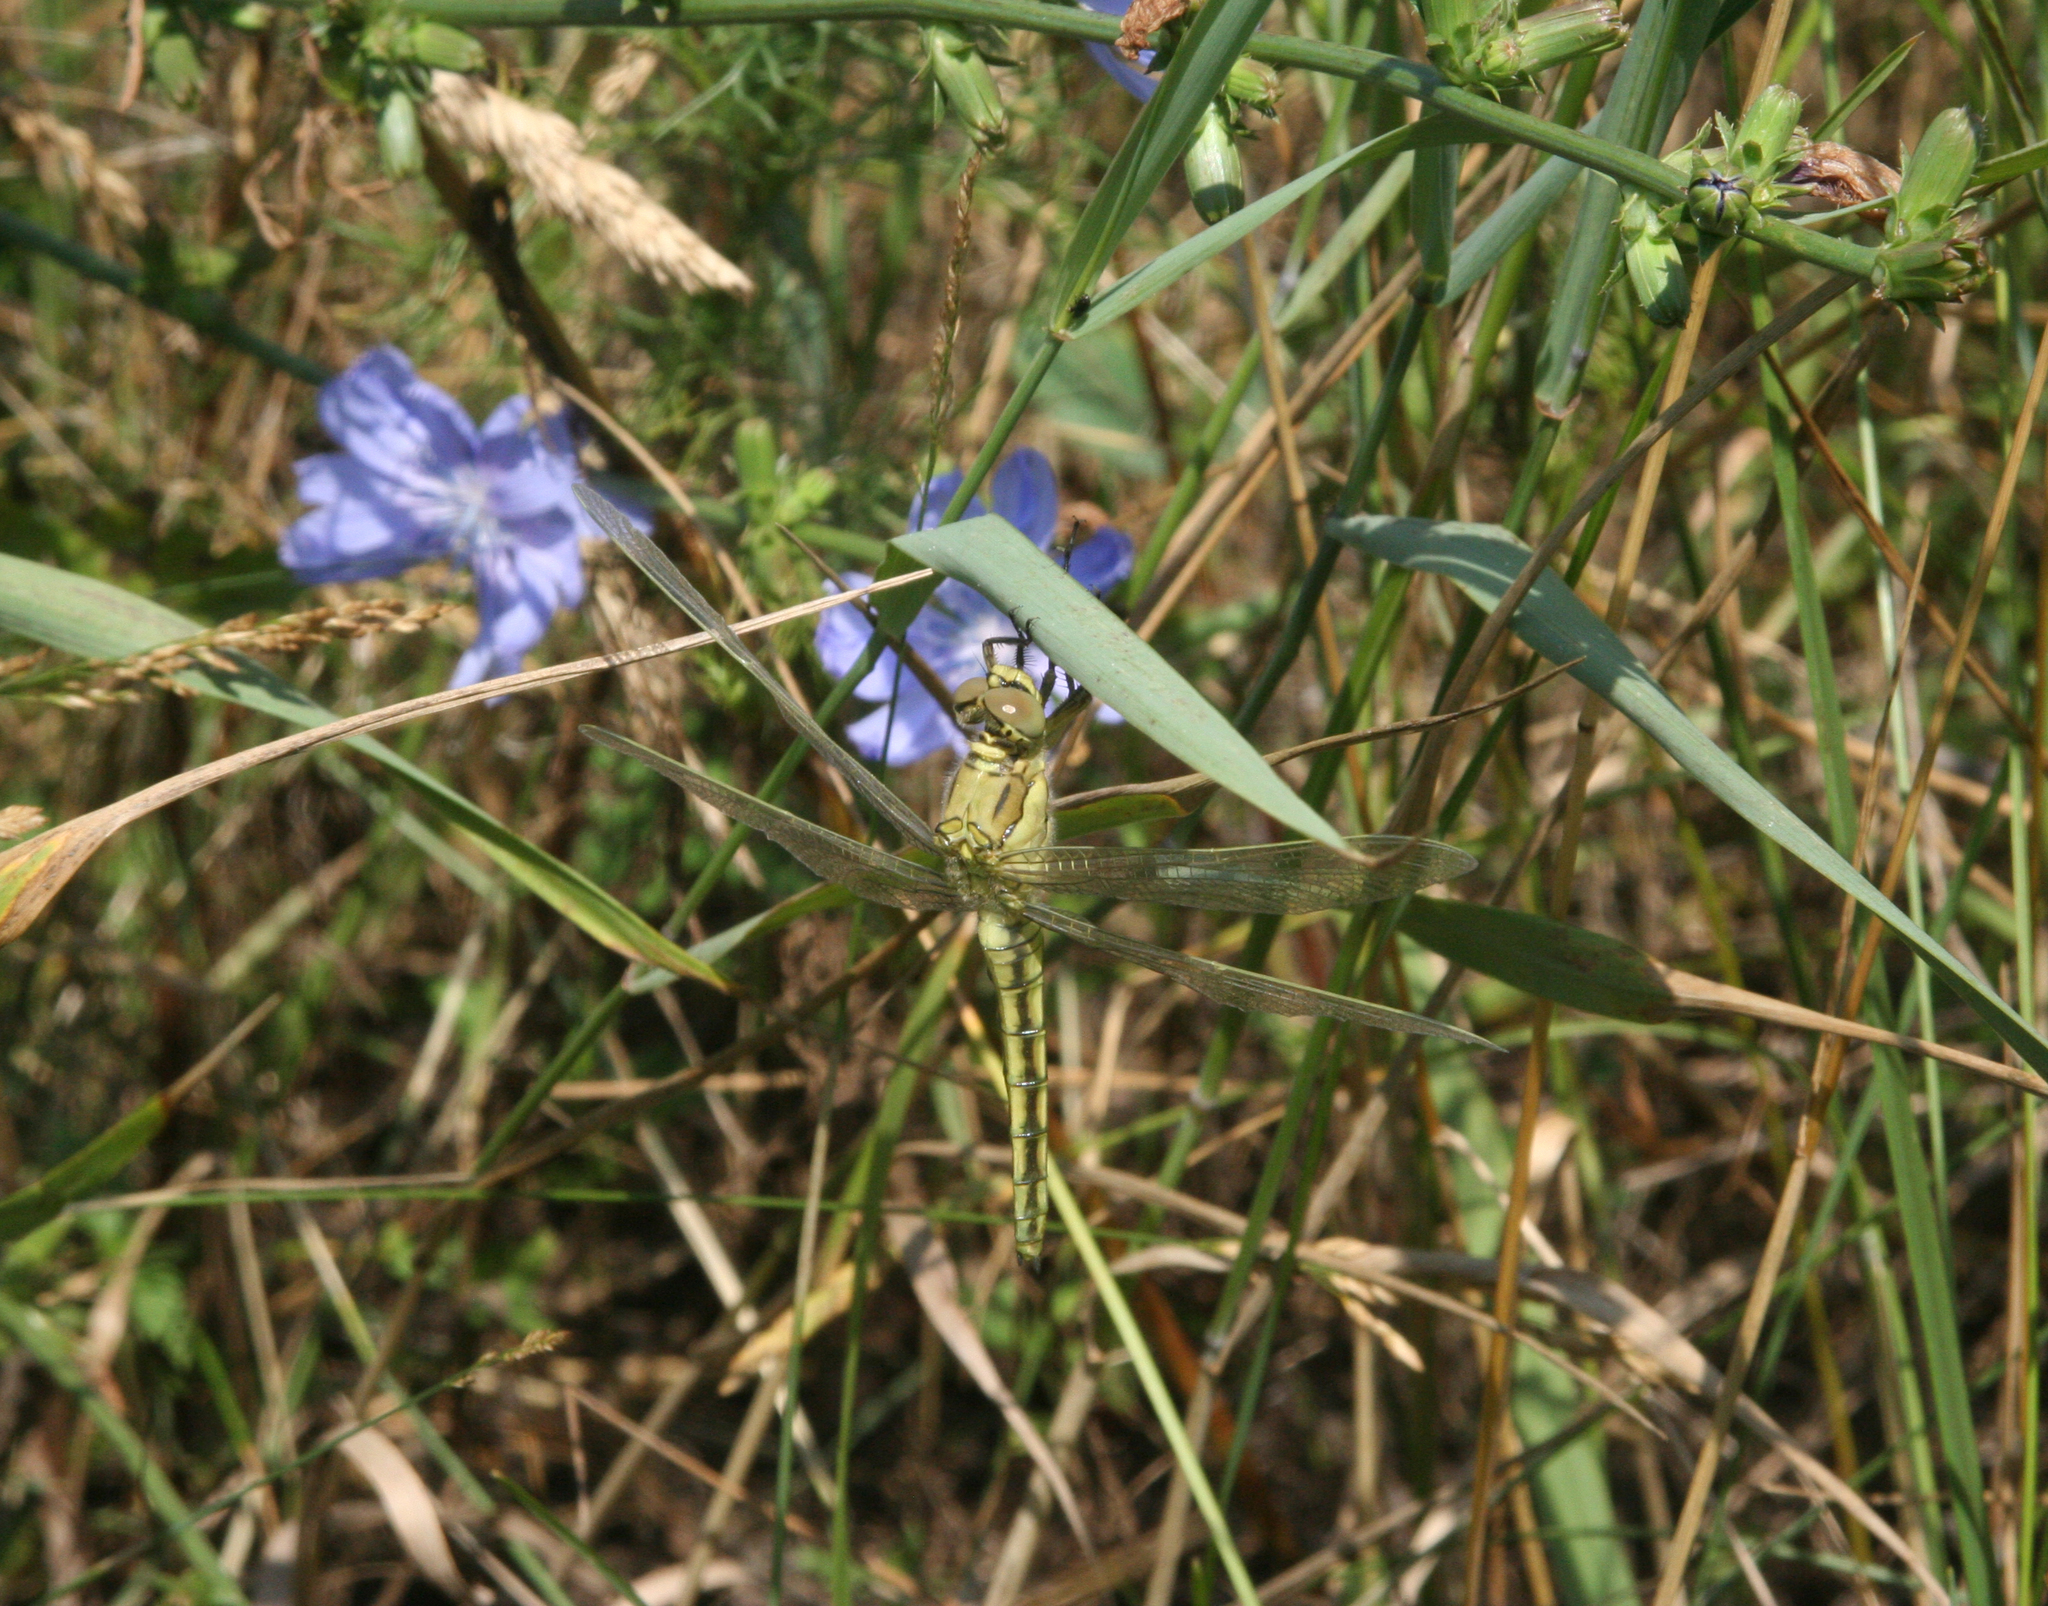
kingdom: Plantae
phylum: Tracheophyta
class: Magnoliopsida
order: Asterales
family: Asteraceae
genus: Cichorium
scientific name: Cichorium intybus
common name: Chicory
